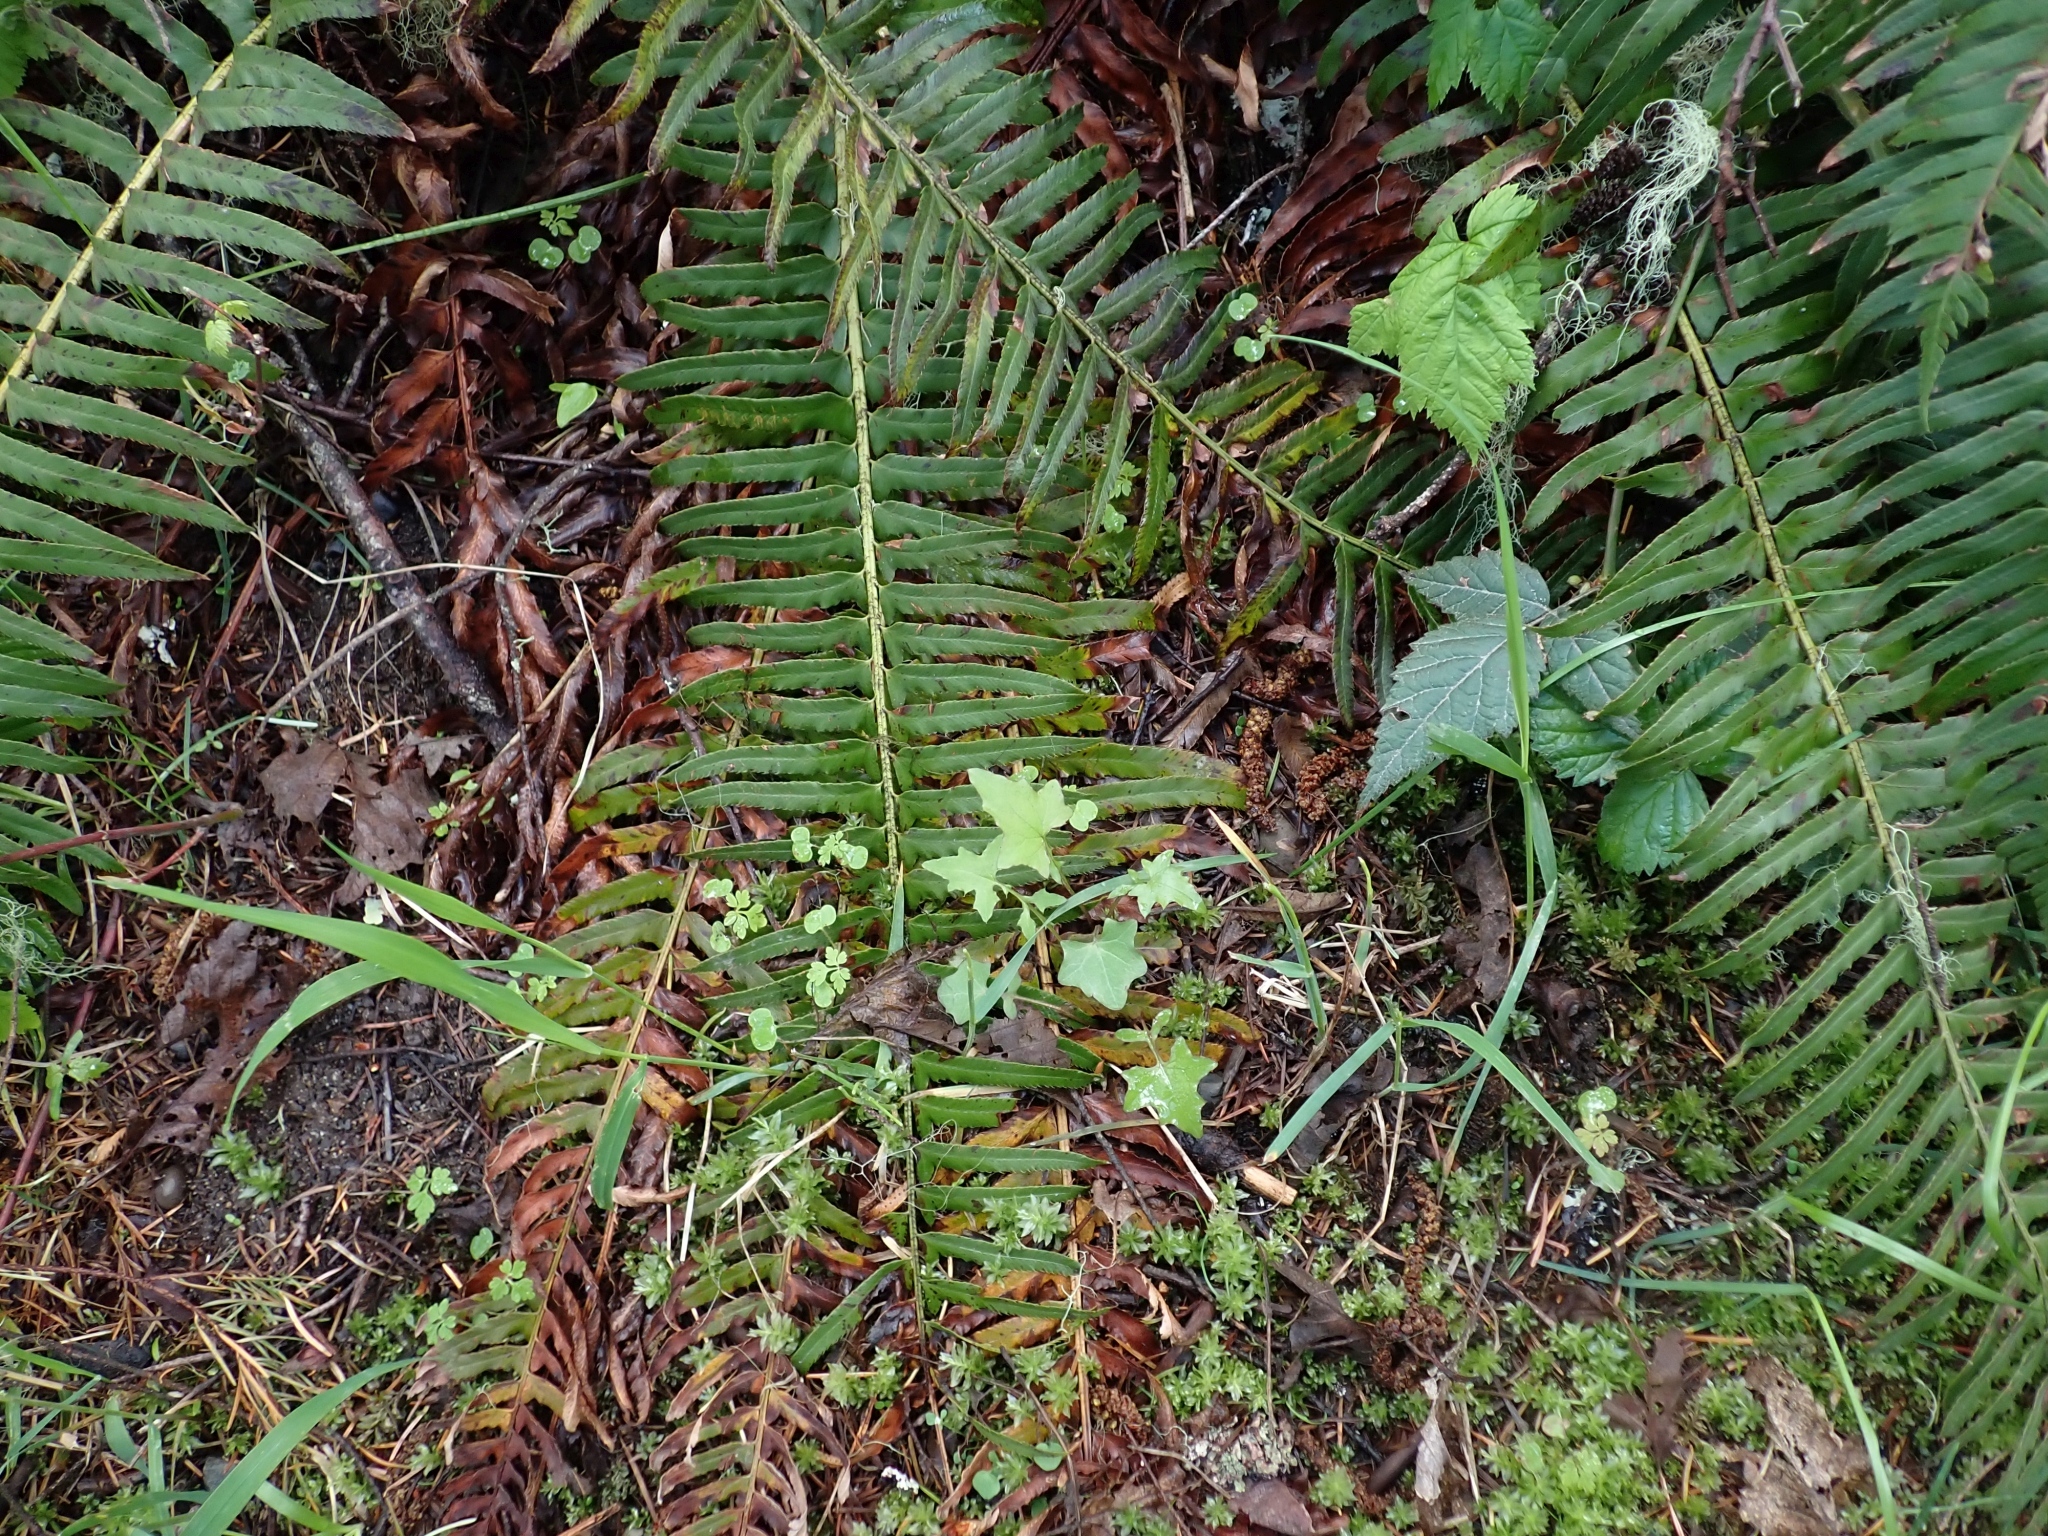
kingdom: Plantae
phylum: Tracheophyta
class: Magnoliopsida
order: Asterales
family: Asteraceae
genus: Mycelis
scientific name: Mycelis muralis
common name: Wall lettuce
